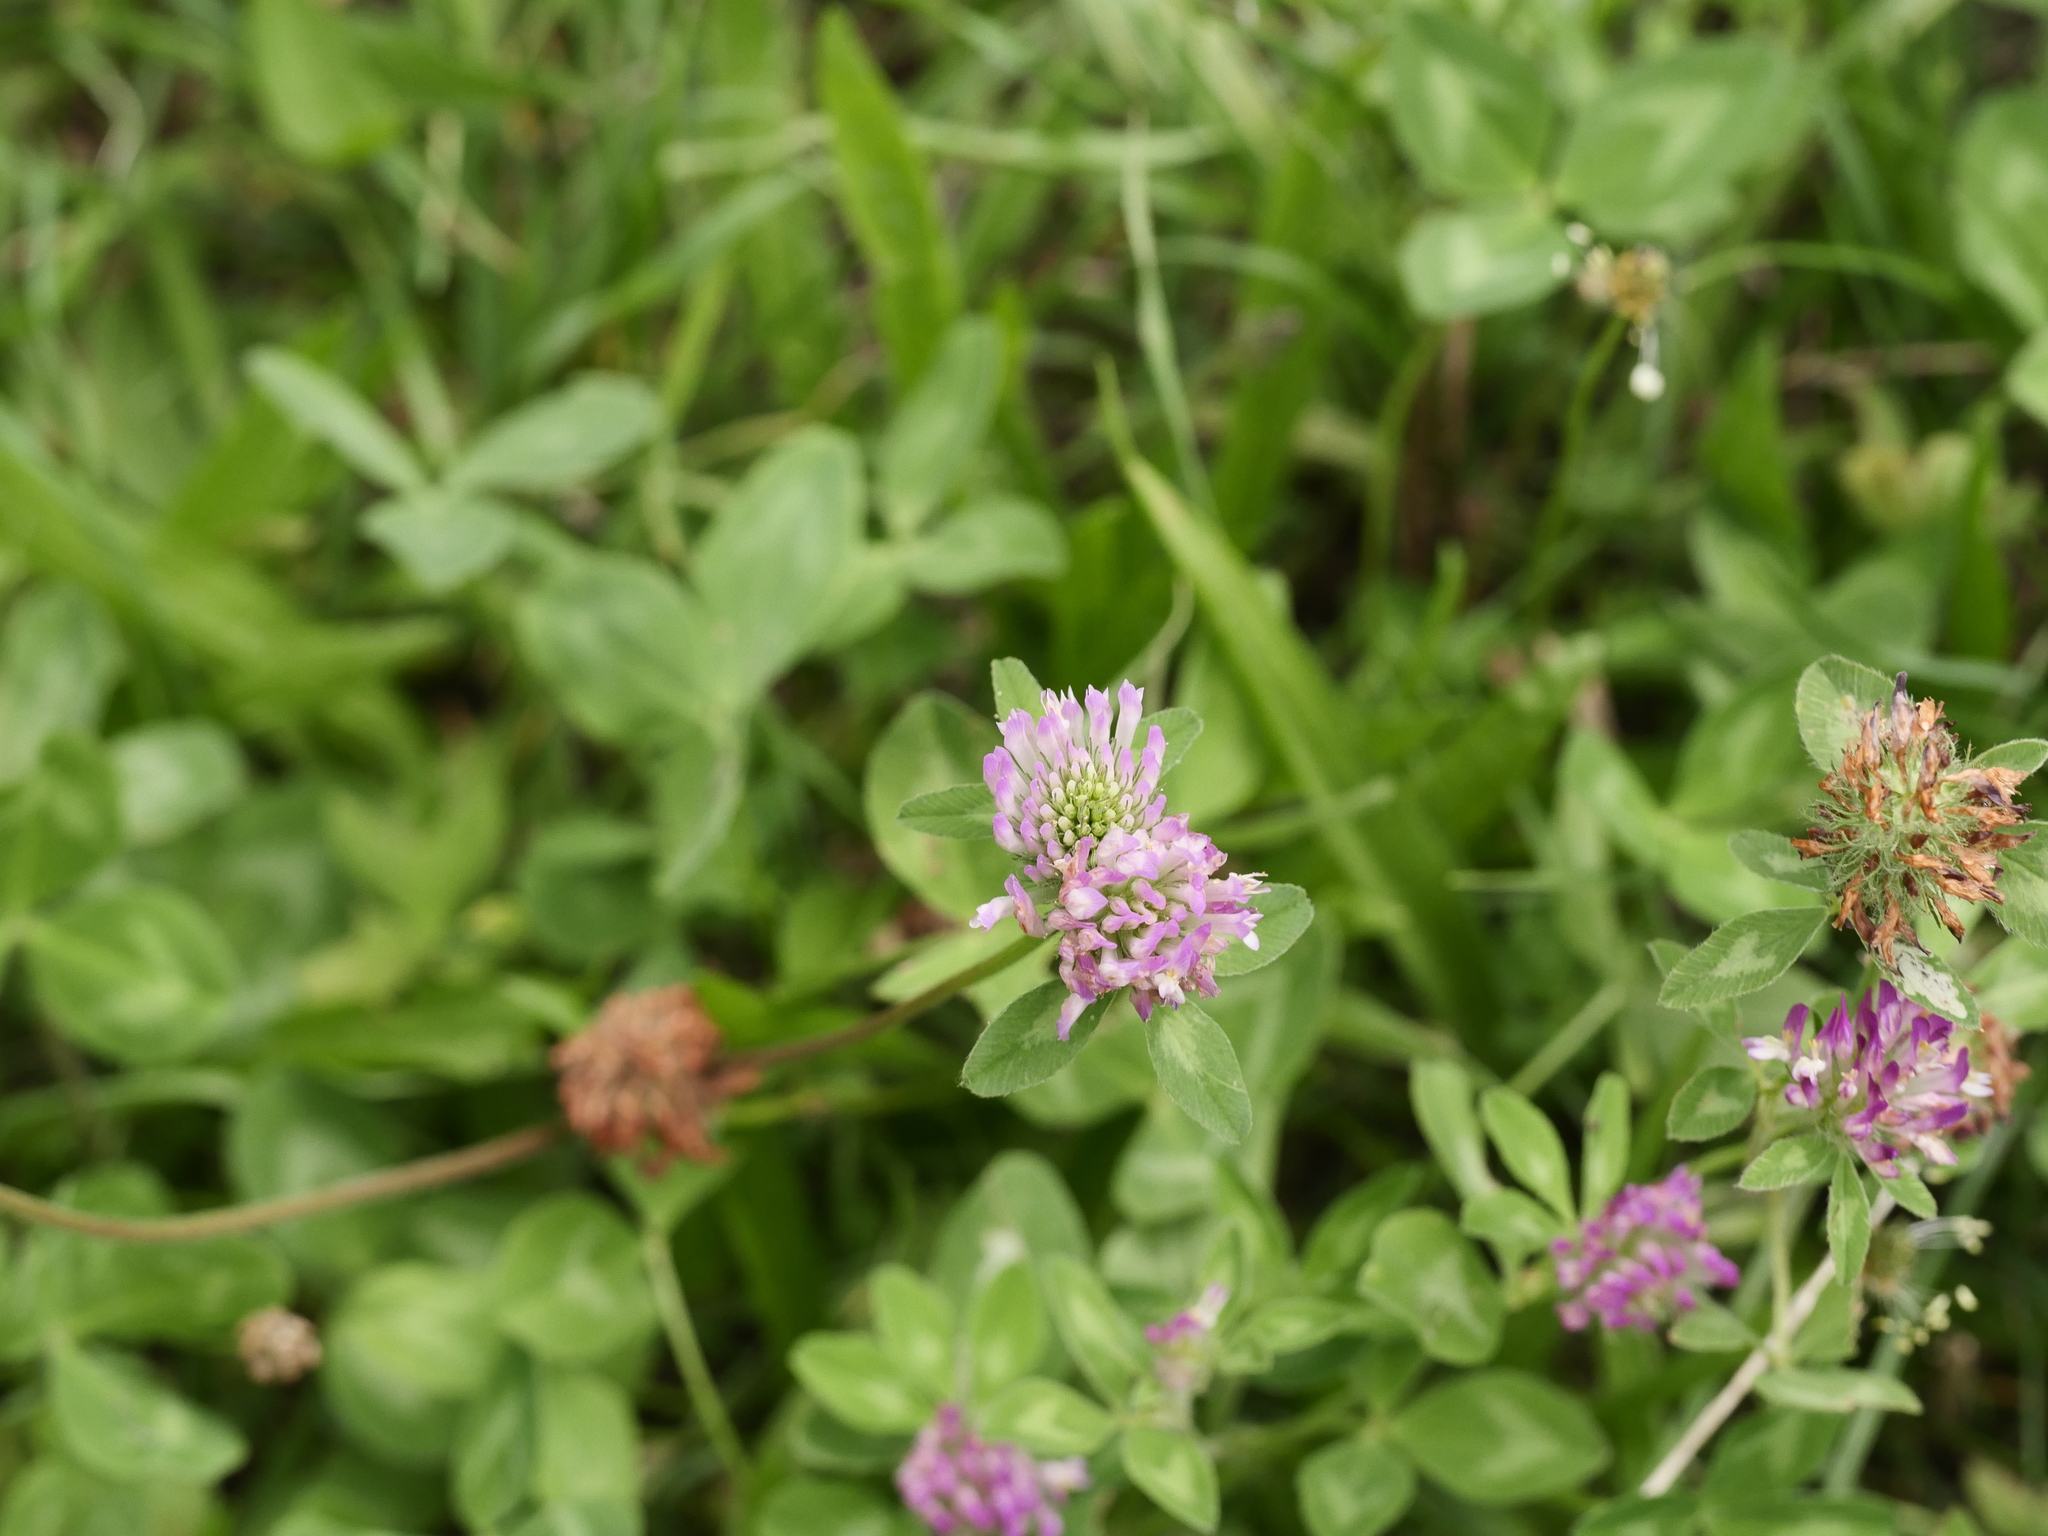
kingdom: Plantae
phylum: Tracheophyta
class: Magnoliopsida
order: Fabales
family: Fabaceae
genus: Trifolium
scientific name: Trifolium pratense
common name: Red clover
